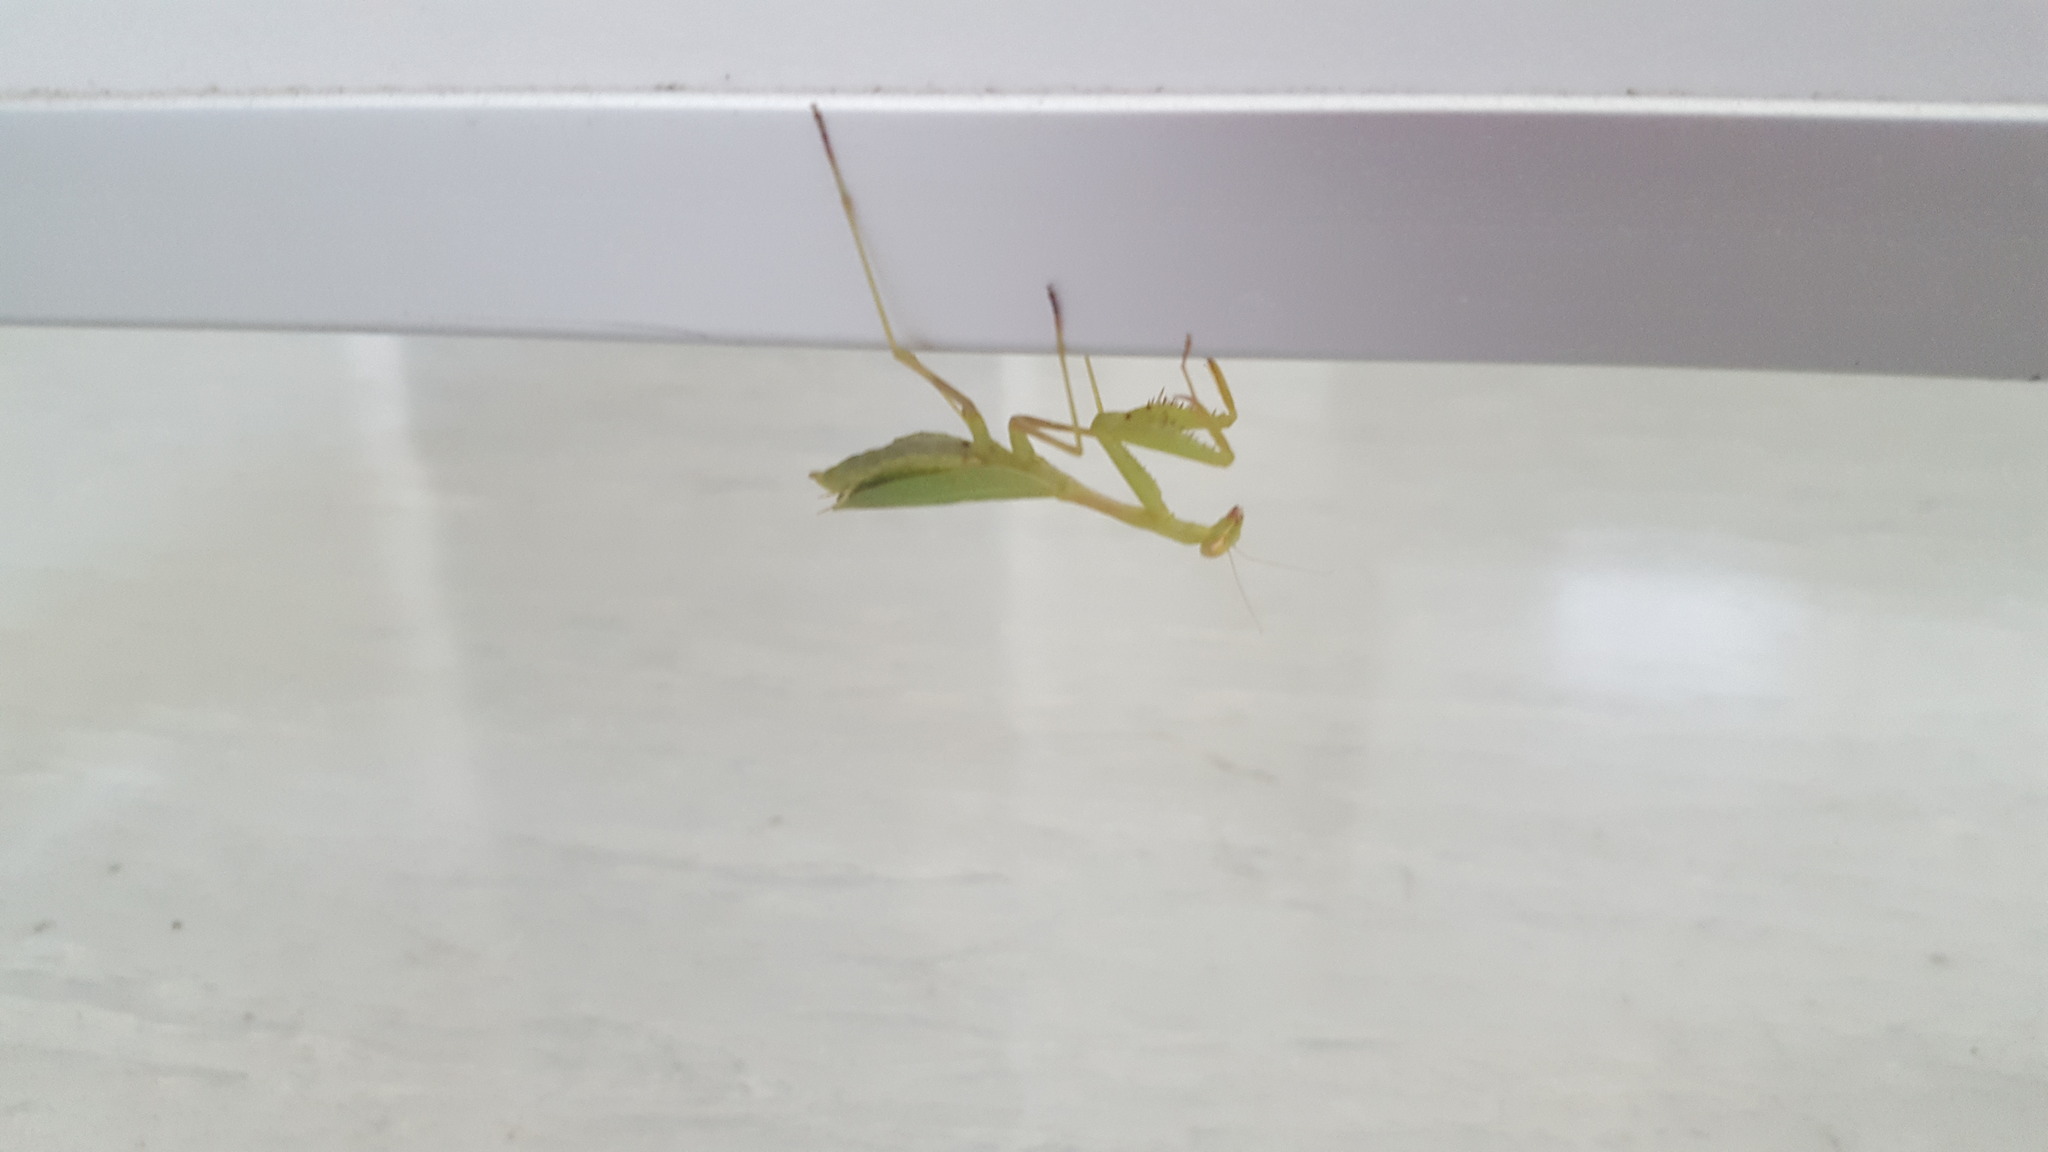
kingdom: Animalia
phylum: Arthropoda
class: Insecta
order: Mantodea
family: Miomantidae
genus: Miomantis
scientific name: Miomantis caffra
